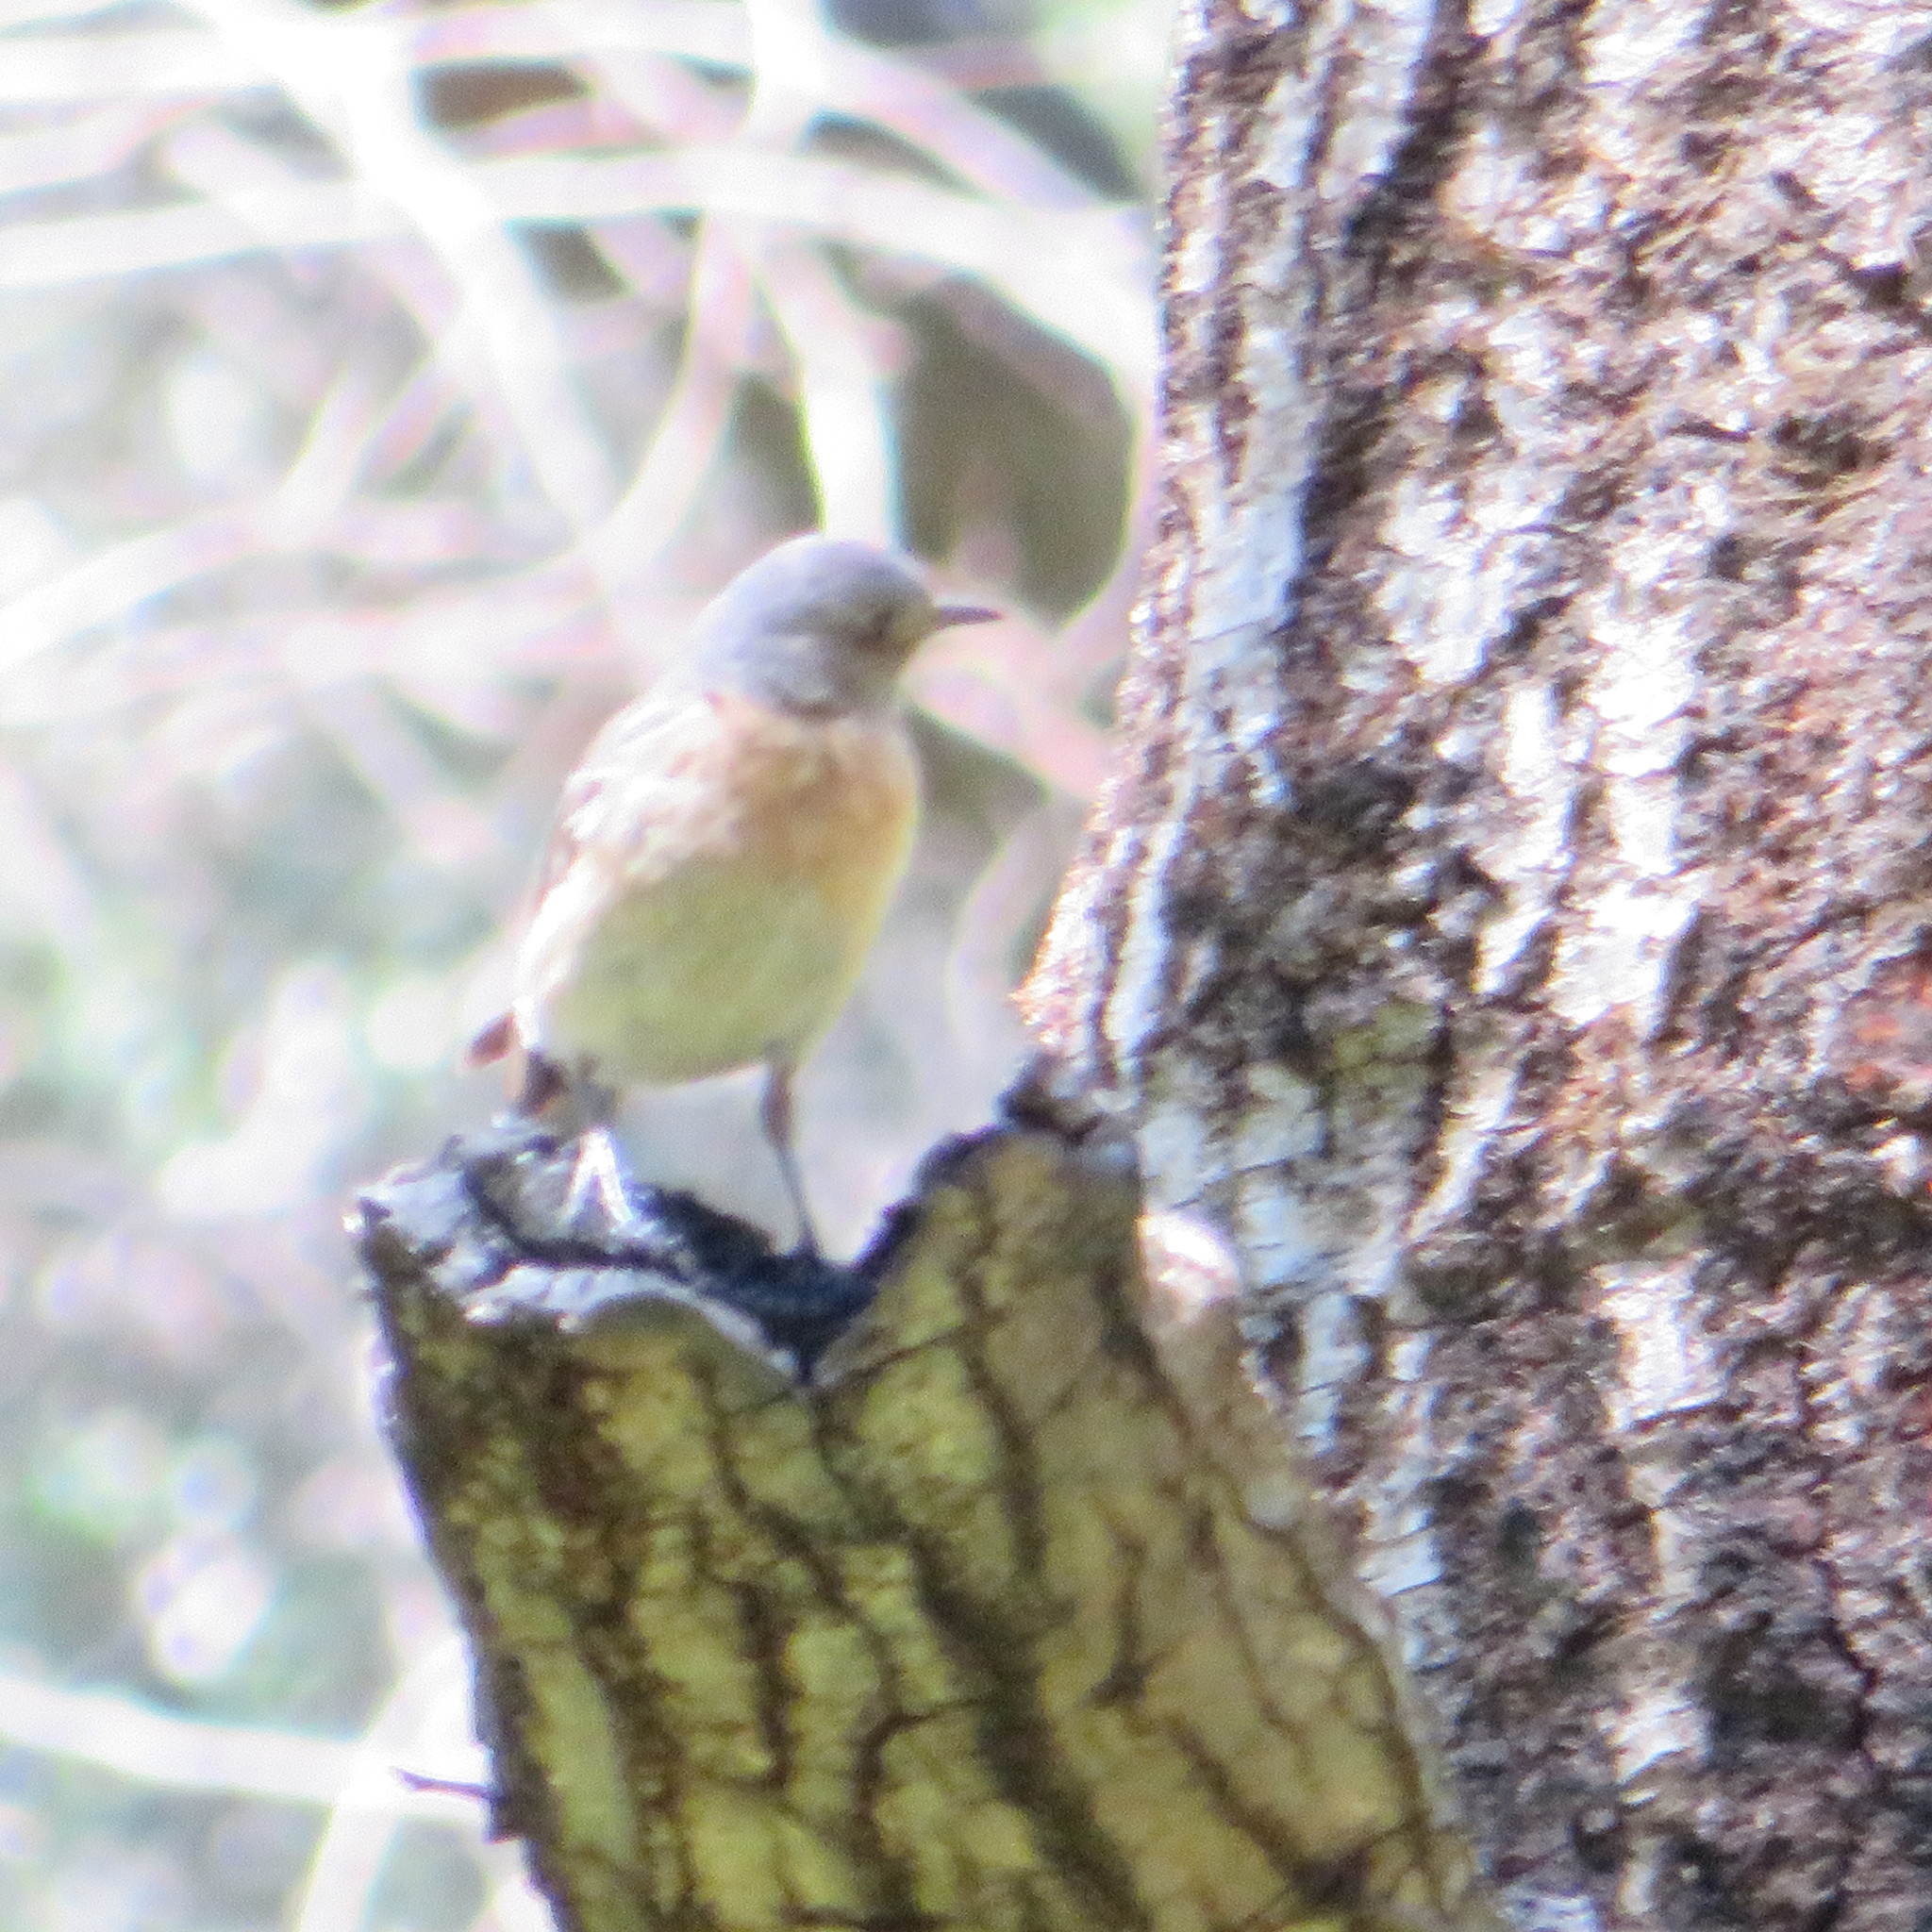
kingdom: Animalia
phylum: Chordata
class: Aves
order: Passeriformes
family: Turdidae
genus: Sialia
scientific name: Sialia mexicana
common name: Western bluebird
